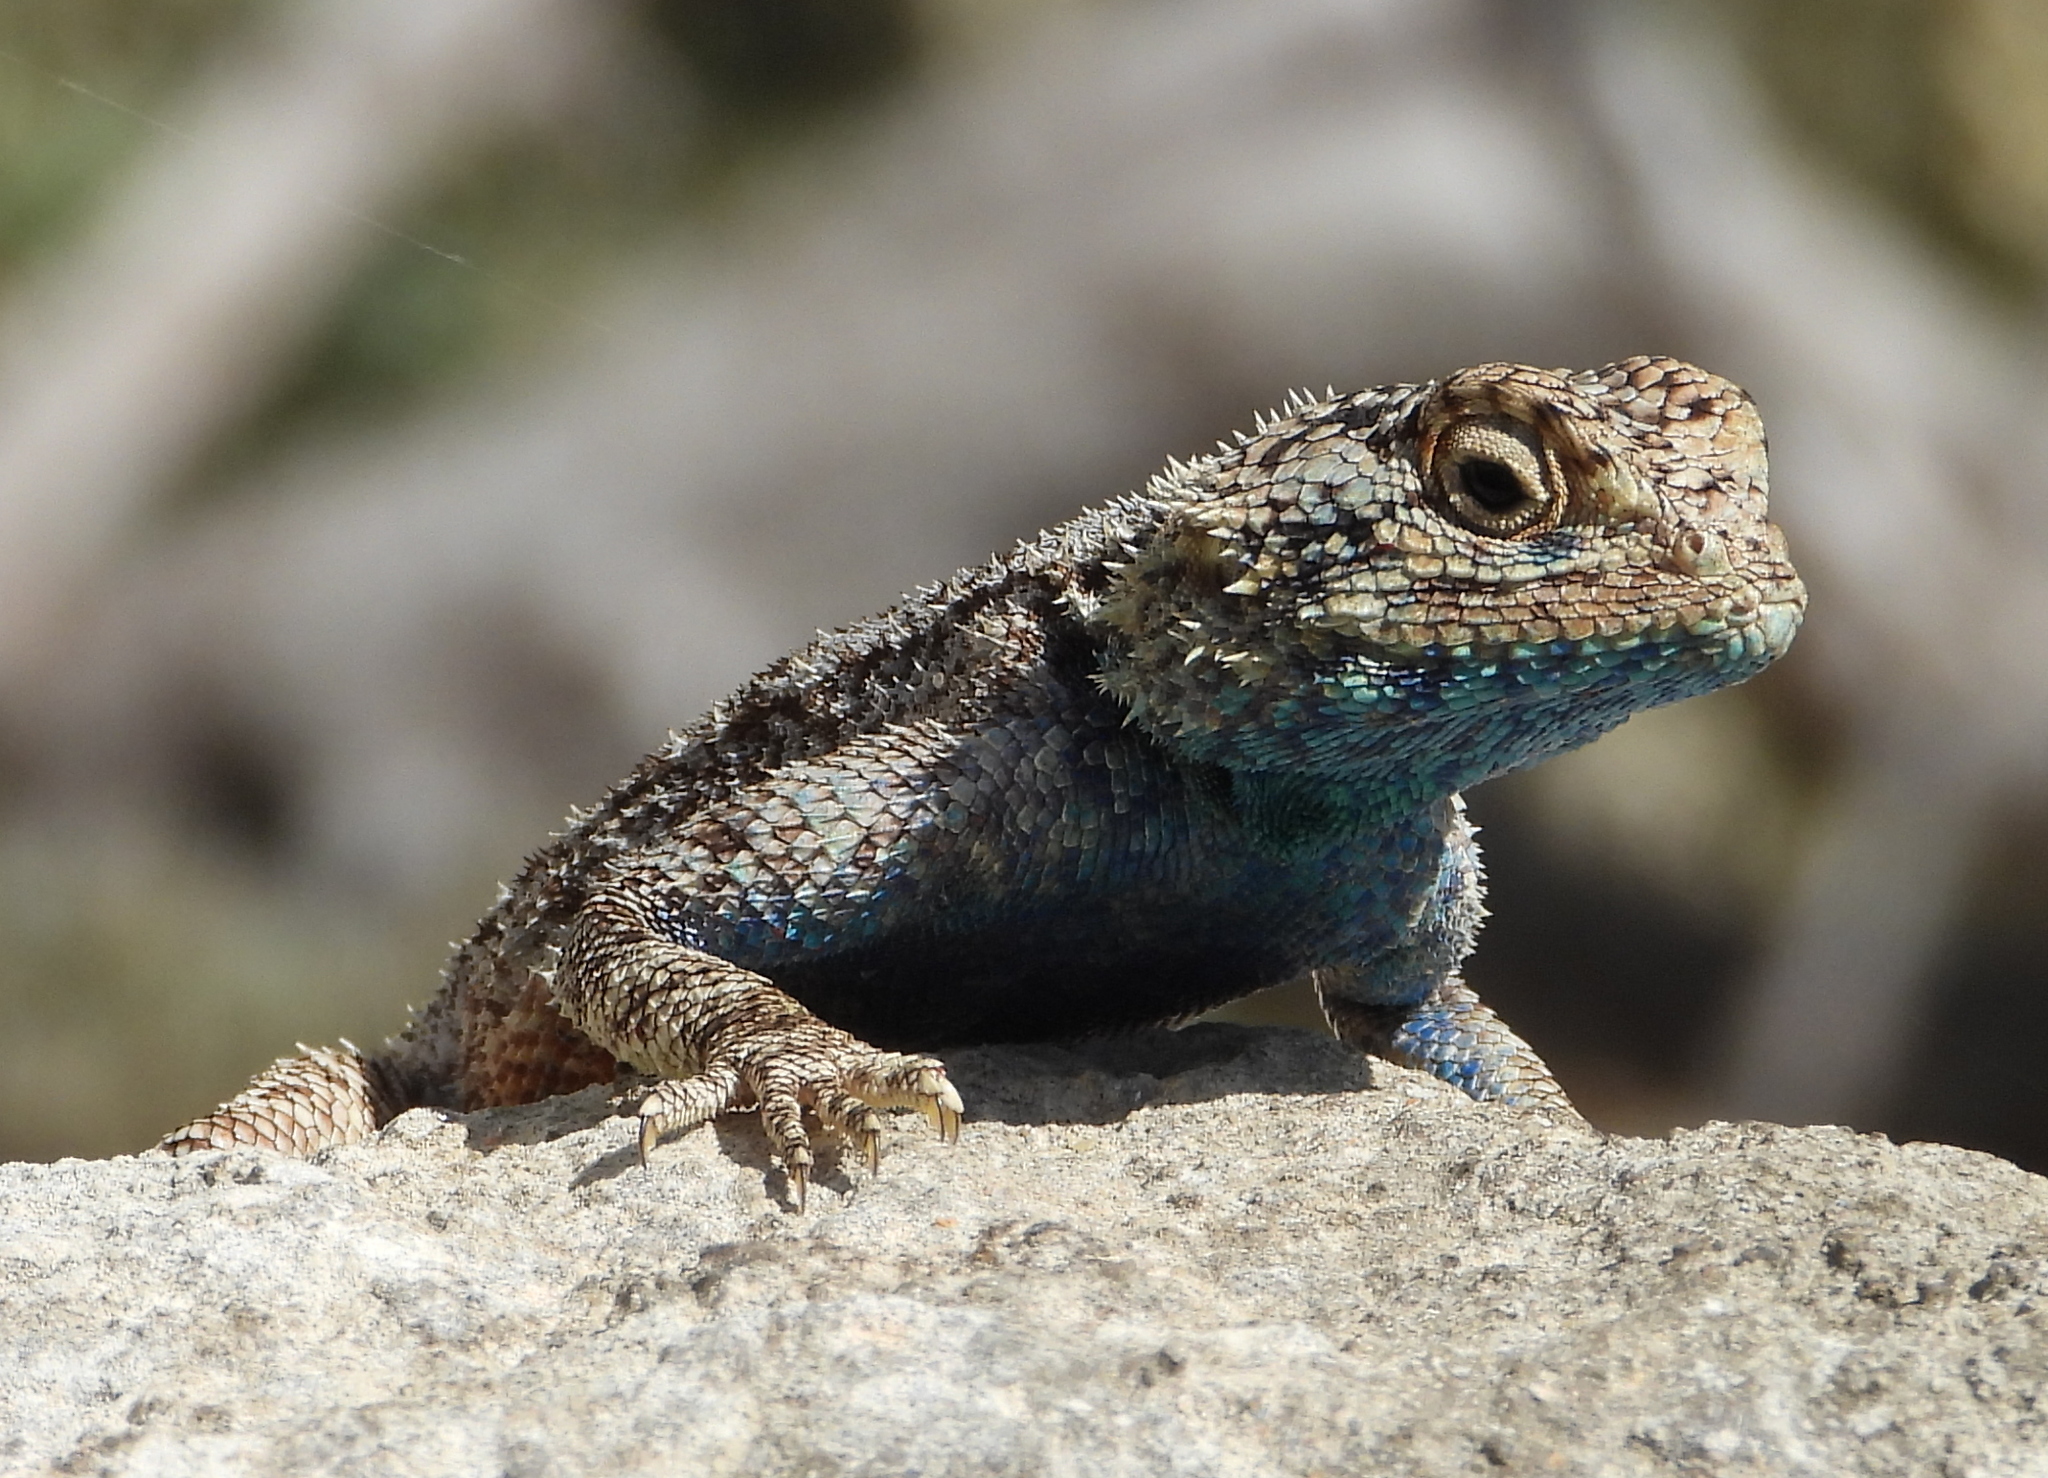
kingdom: Animalia
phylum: Chordata
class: Squamata
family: Agamidae
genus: Agama
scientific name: Agama atra
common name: Southern african rock agama
